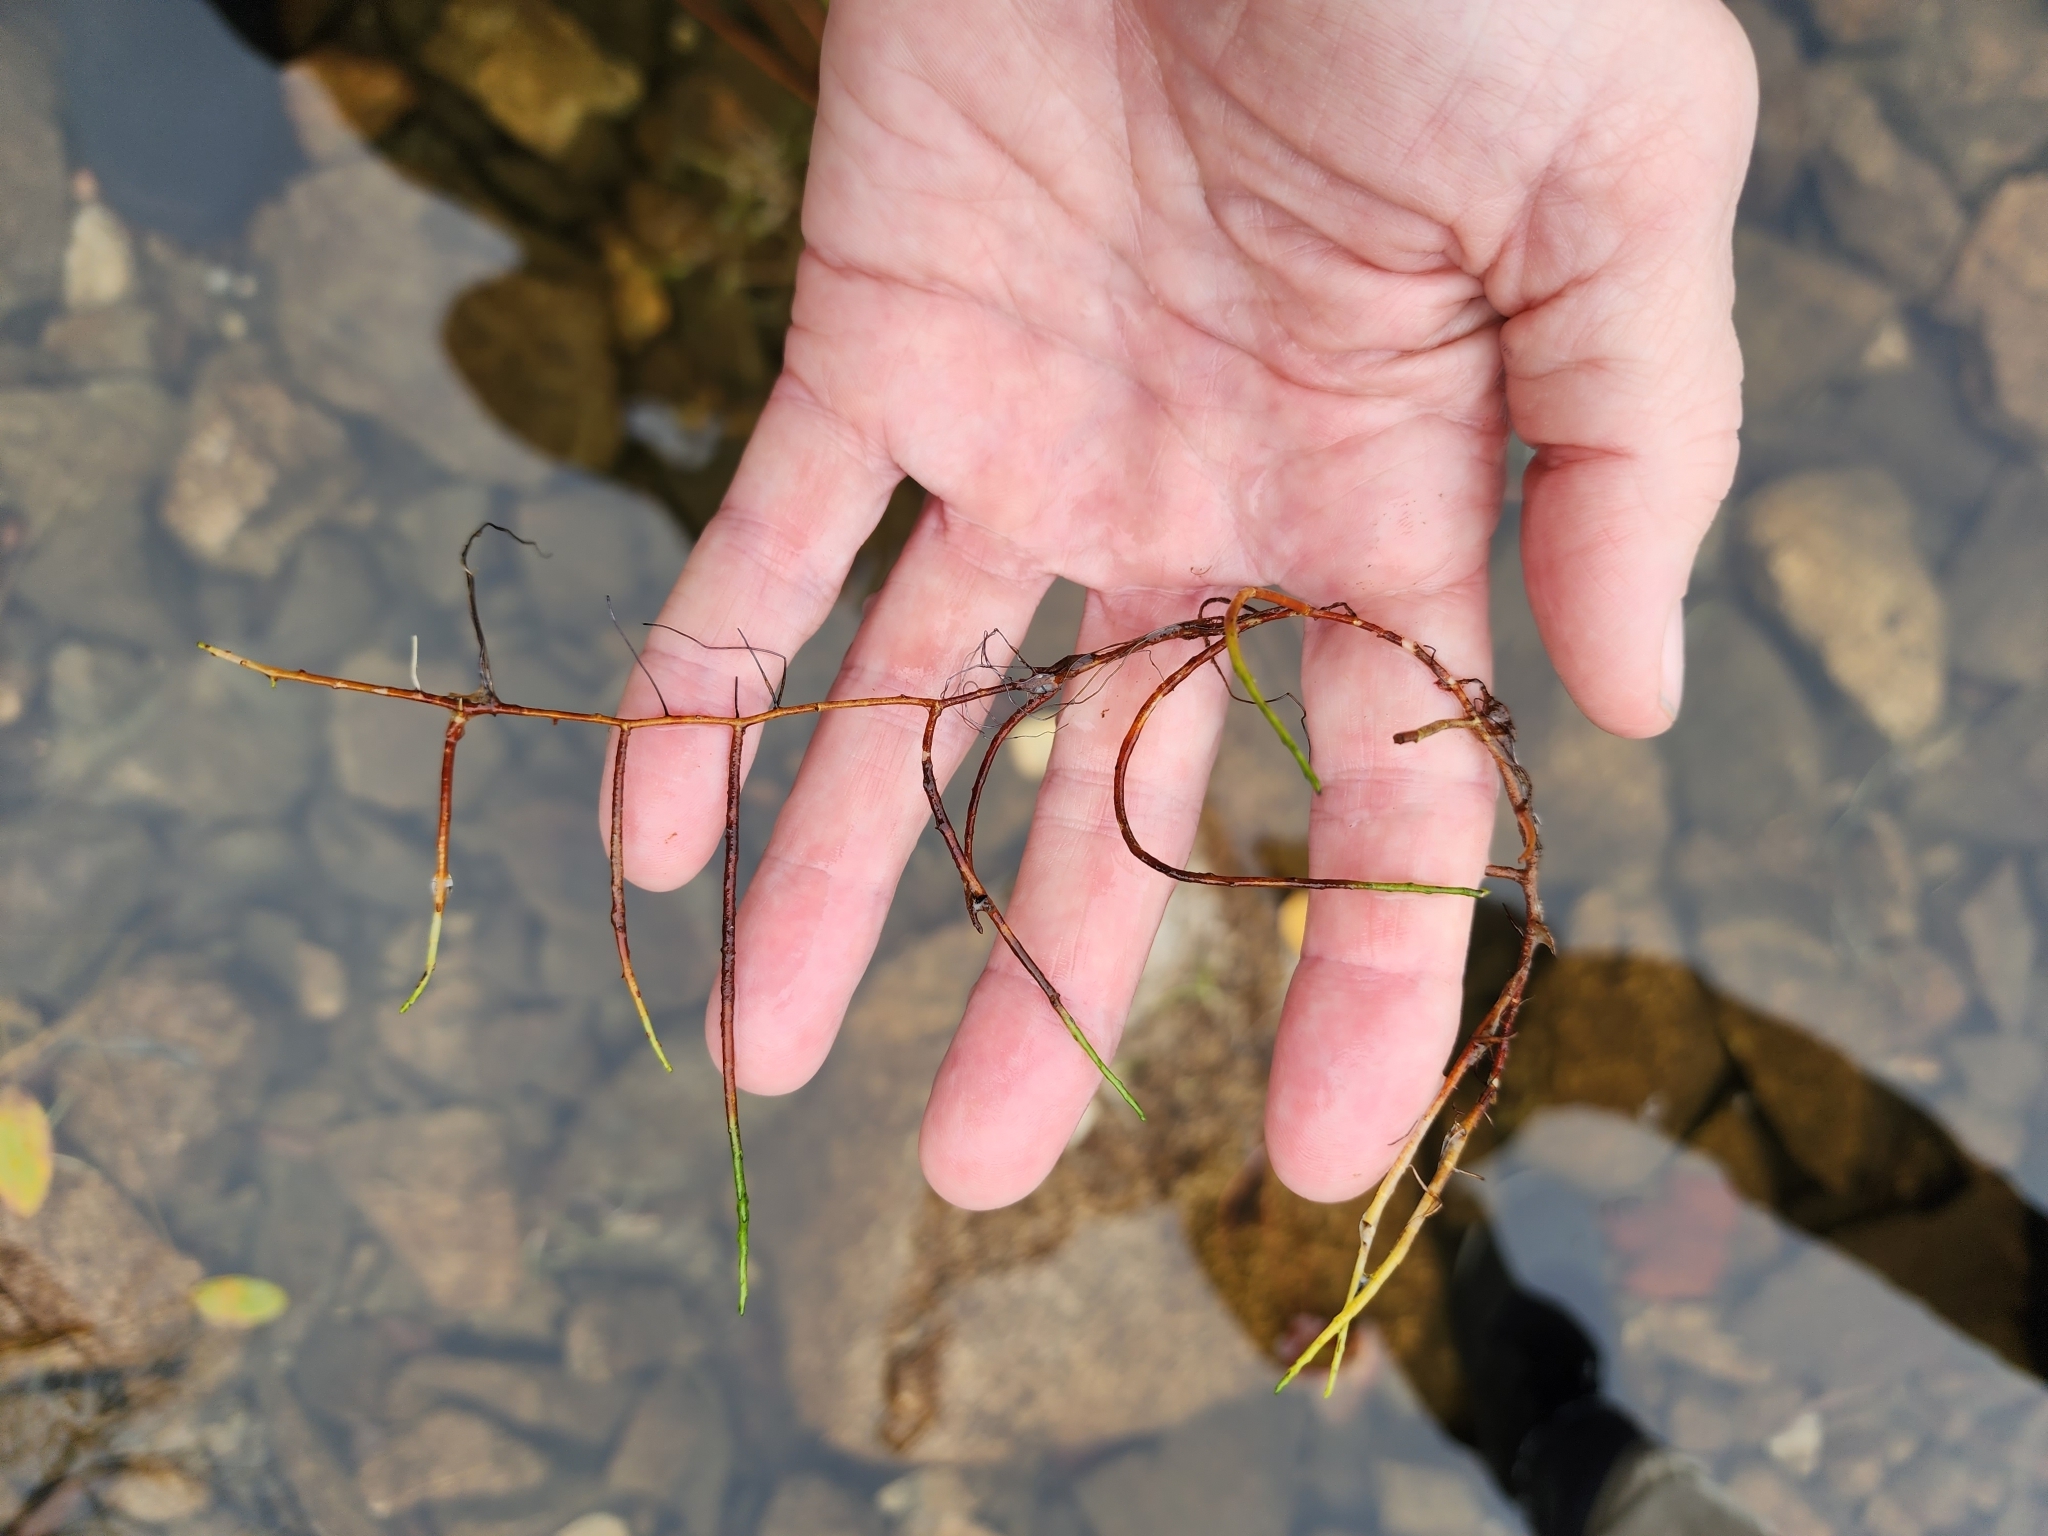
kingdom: Plantae
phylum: Tracheophyta
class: Magnoliopsida
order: Saxifragales
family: Haloragaceae
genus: Myriophyllum
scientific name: Myriophyllum tenellum
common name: Slender water-milfoil
